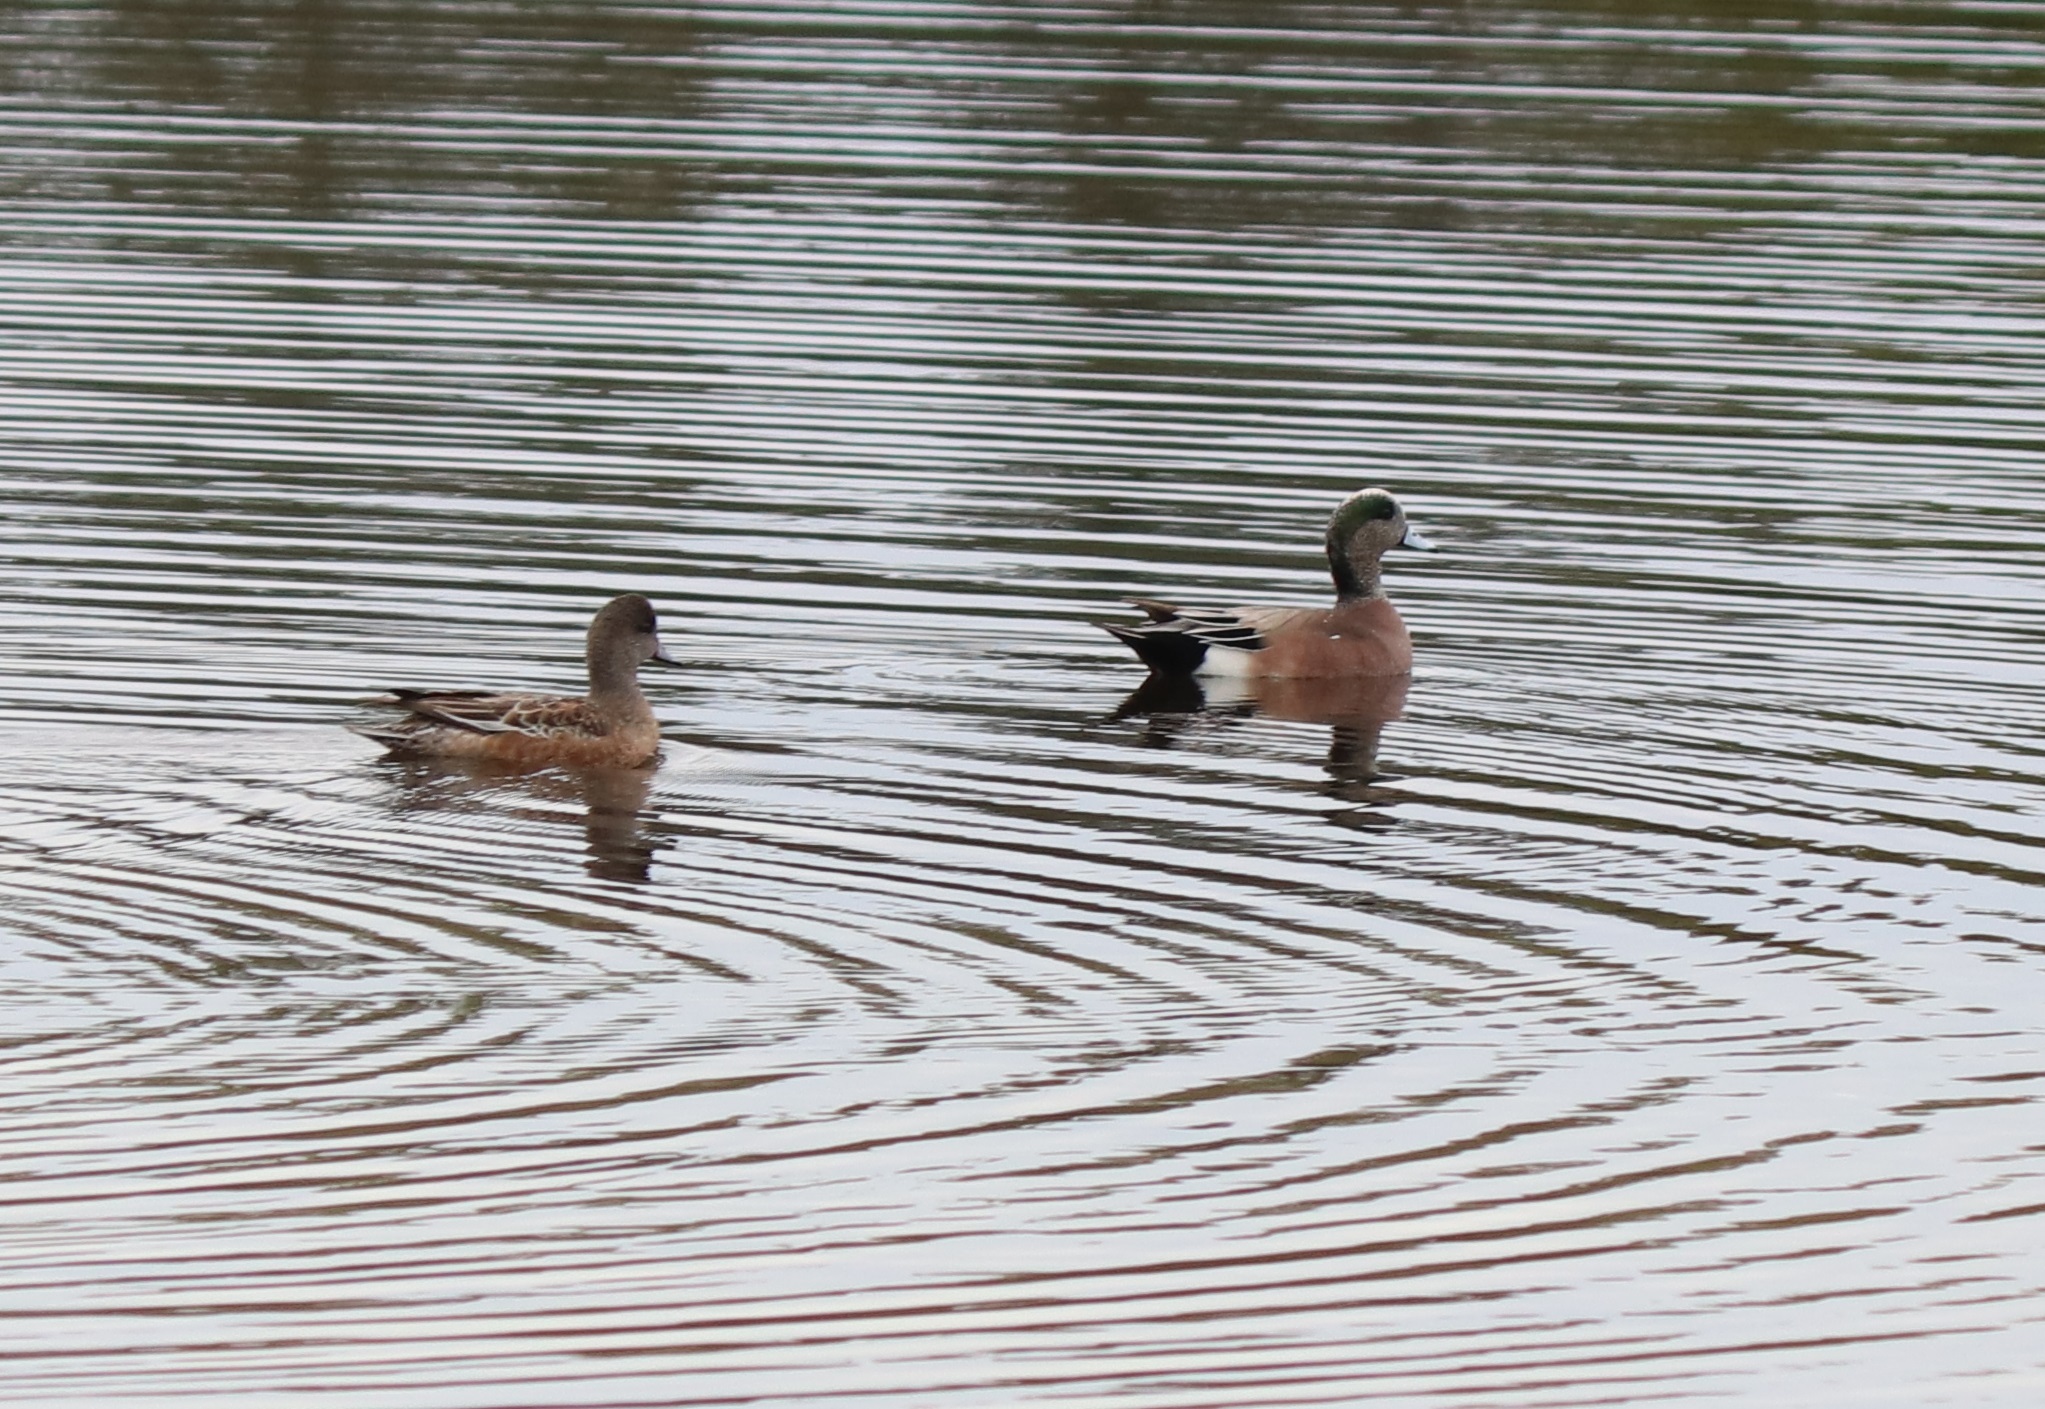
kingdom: Animalia
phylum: Chordata
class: Aves
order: Anseriformes
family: Anatidae
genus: Mareca
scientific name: Mareca americana
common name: American wigeon
